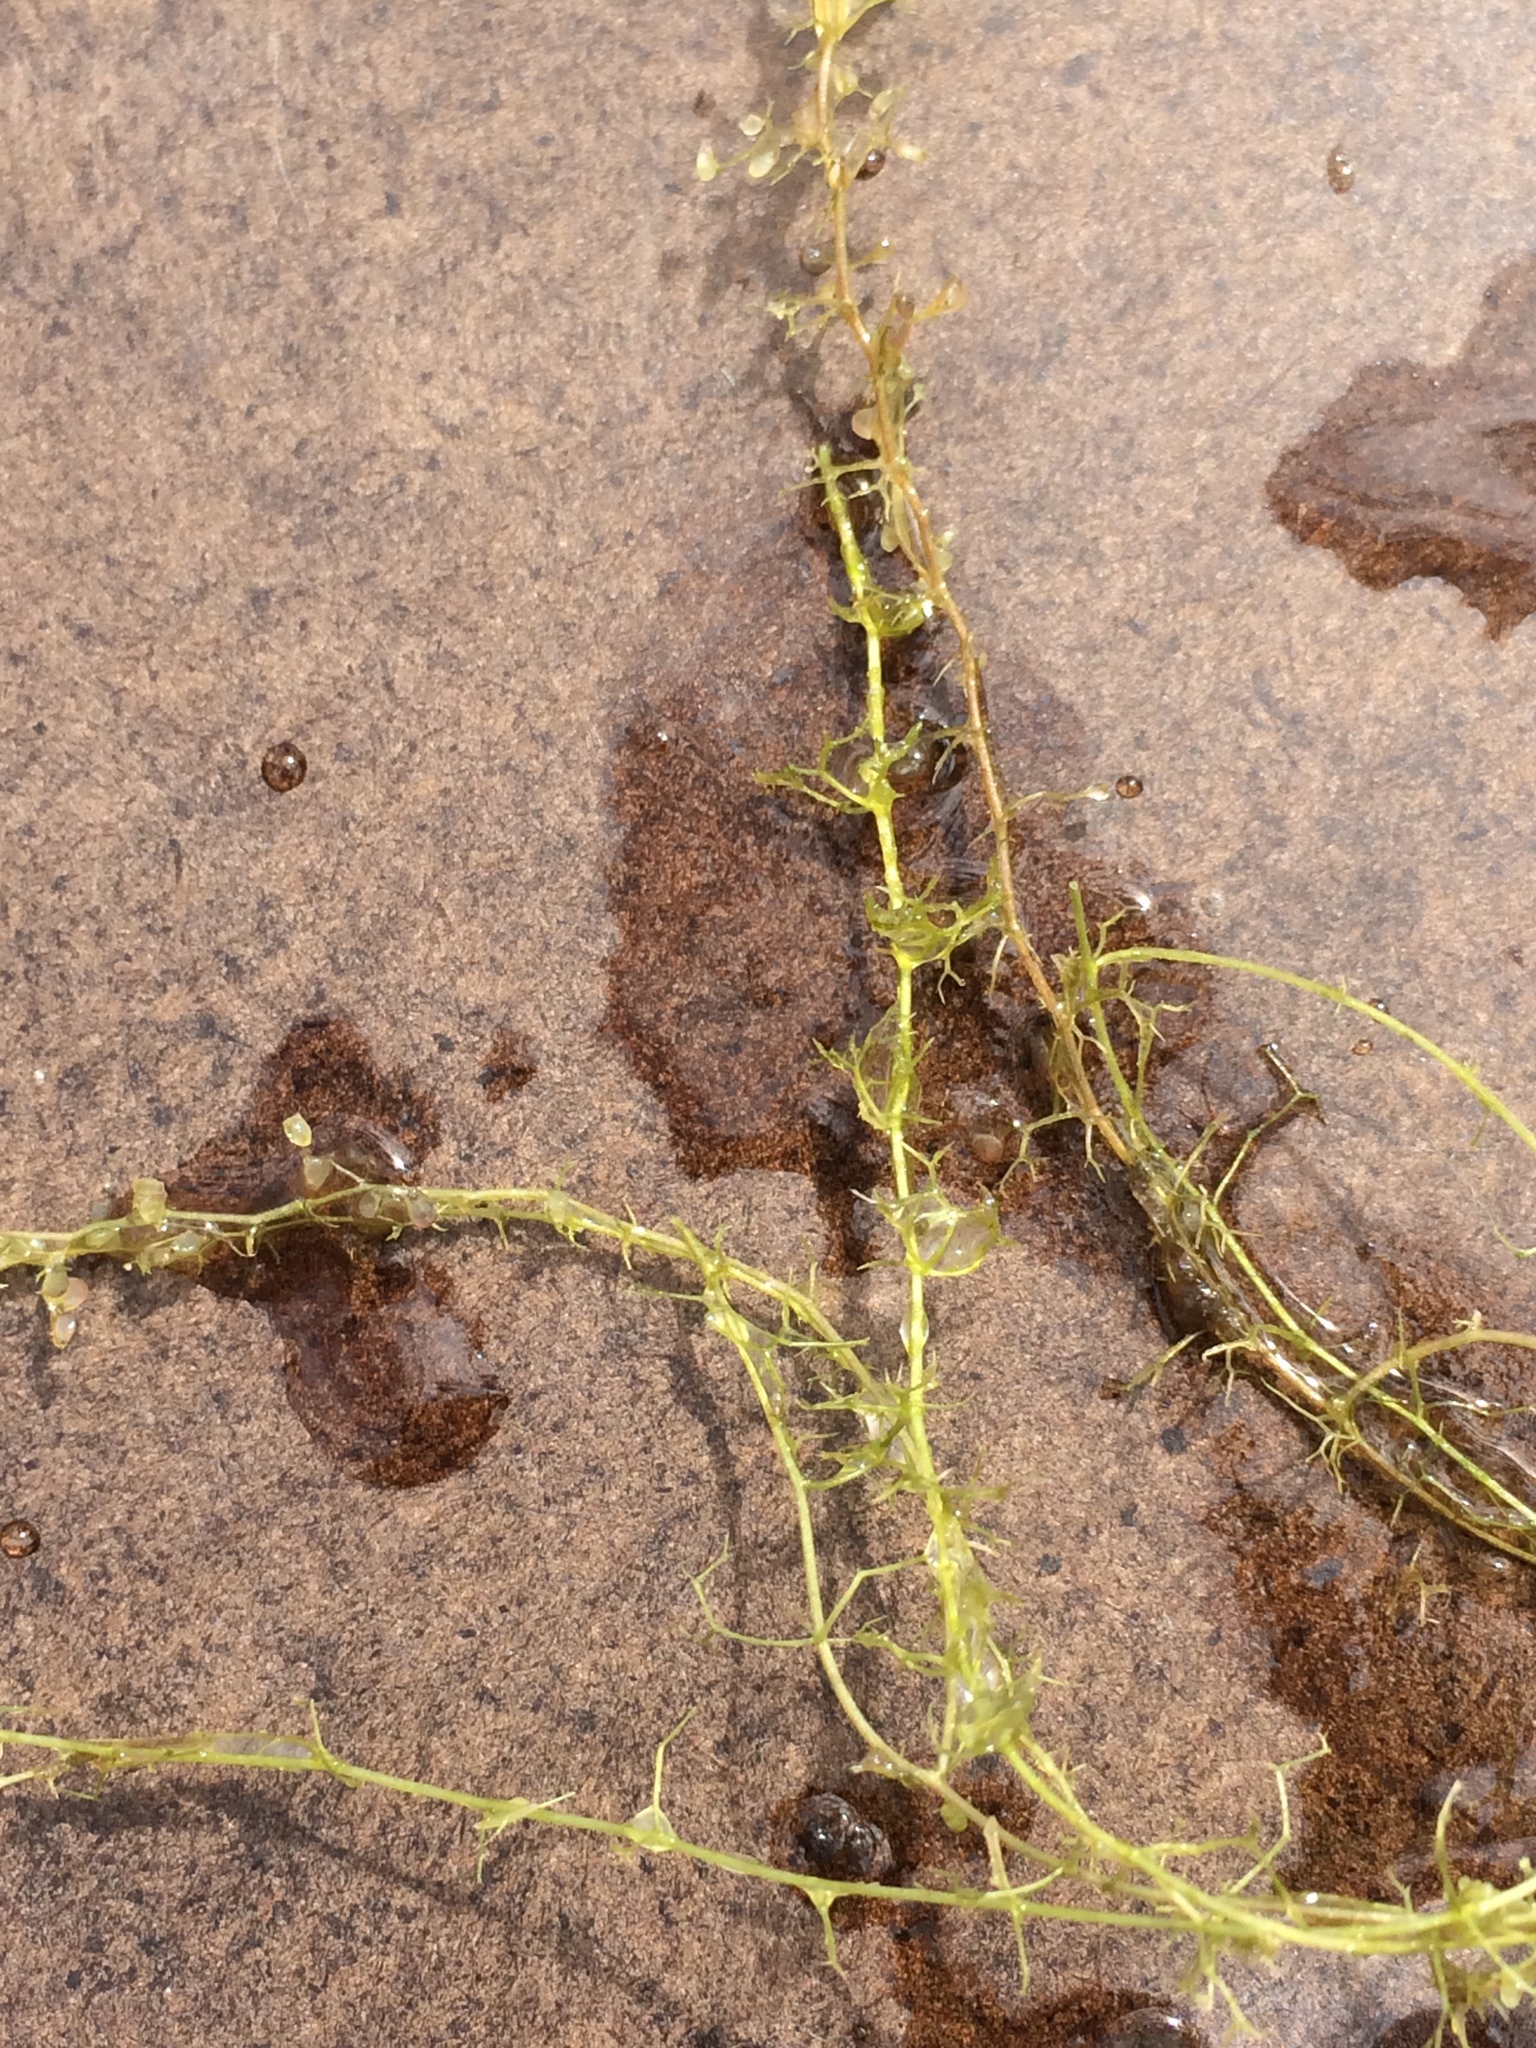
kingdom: Plantae
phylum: Tracheophyta
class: Magnoliopsida
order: Lamiales
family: Lentibulariaceae
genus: Utricularia
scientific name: Utricularia minor
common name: Lesser bladderwort
